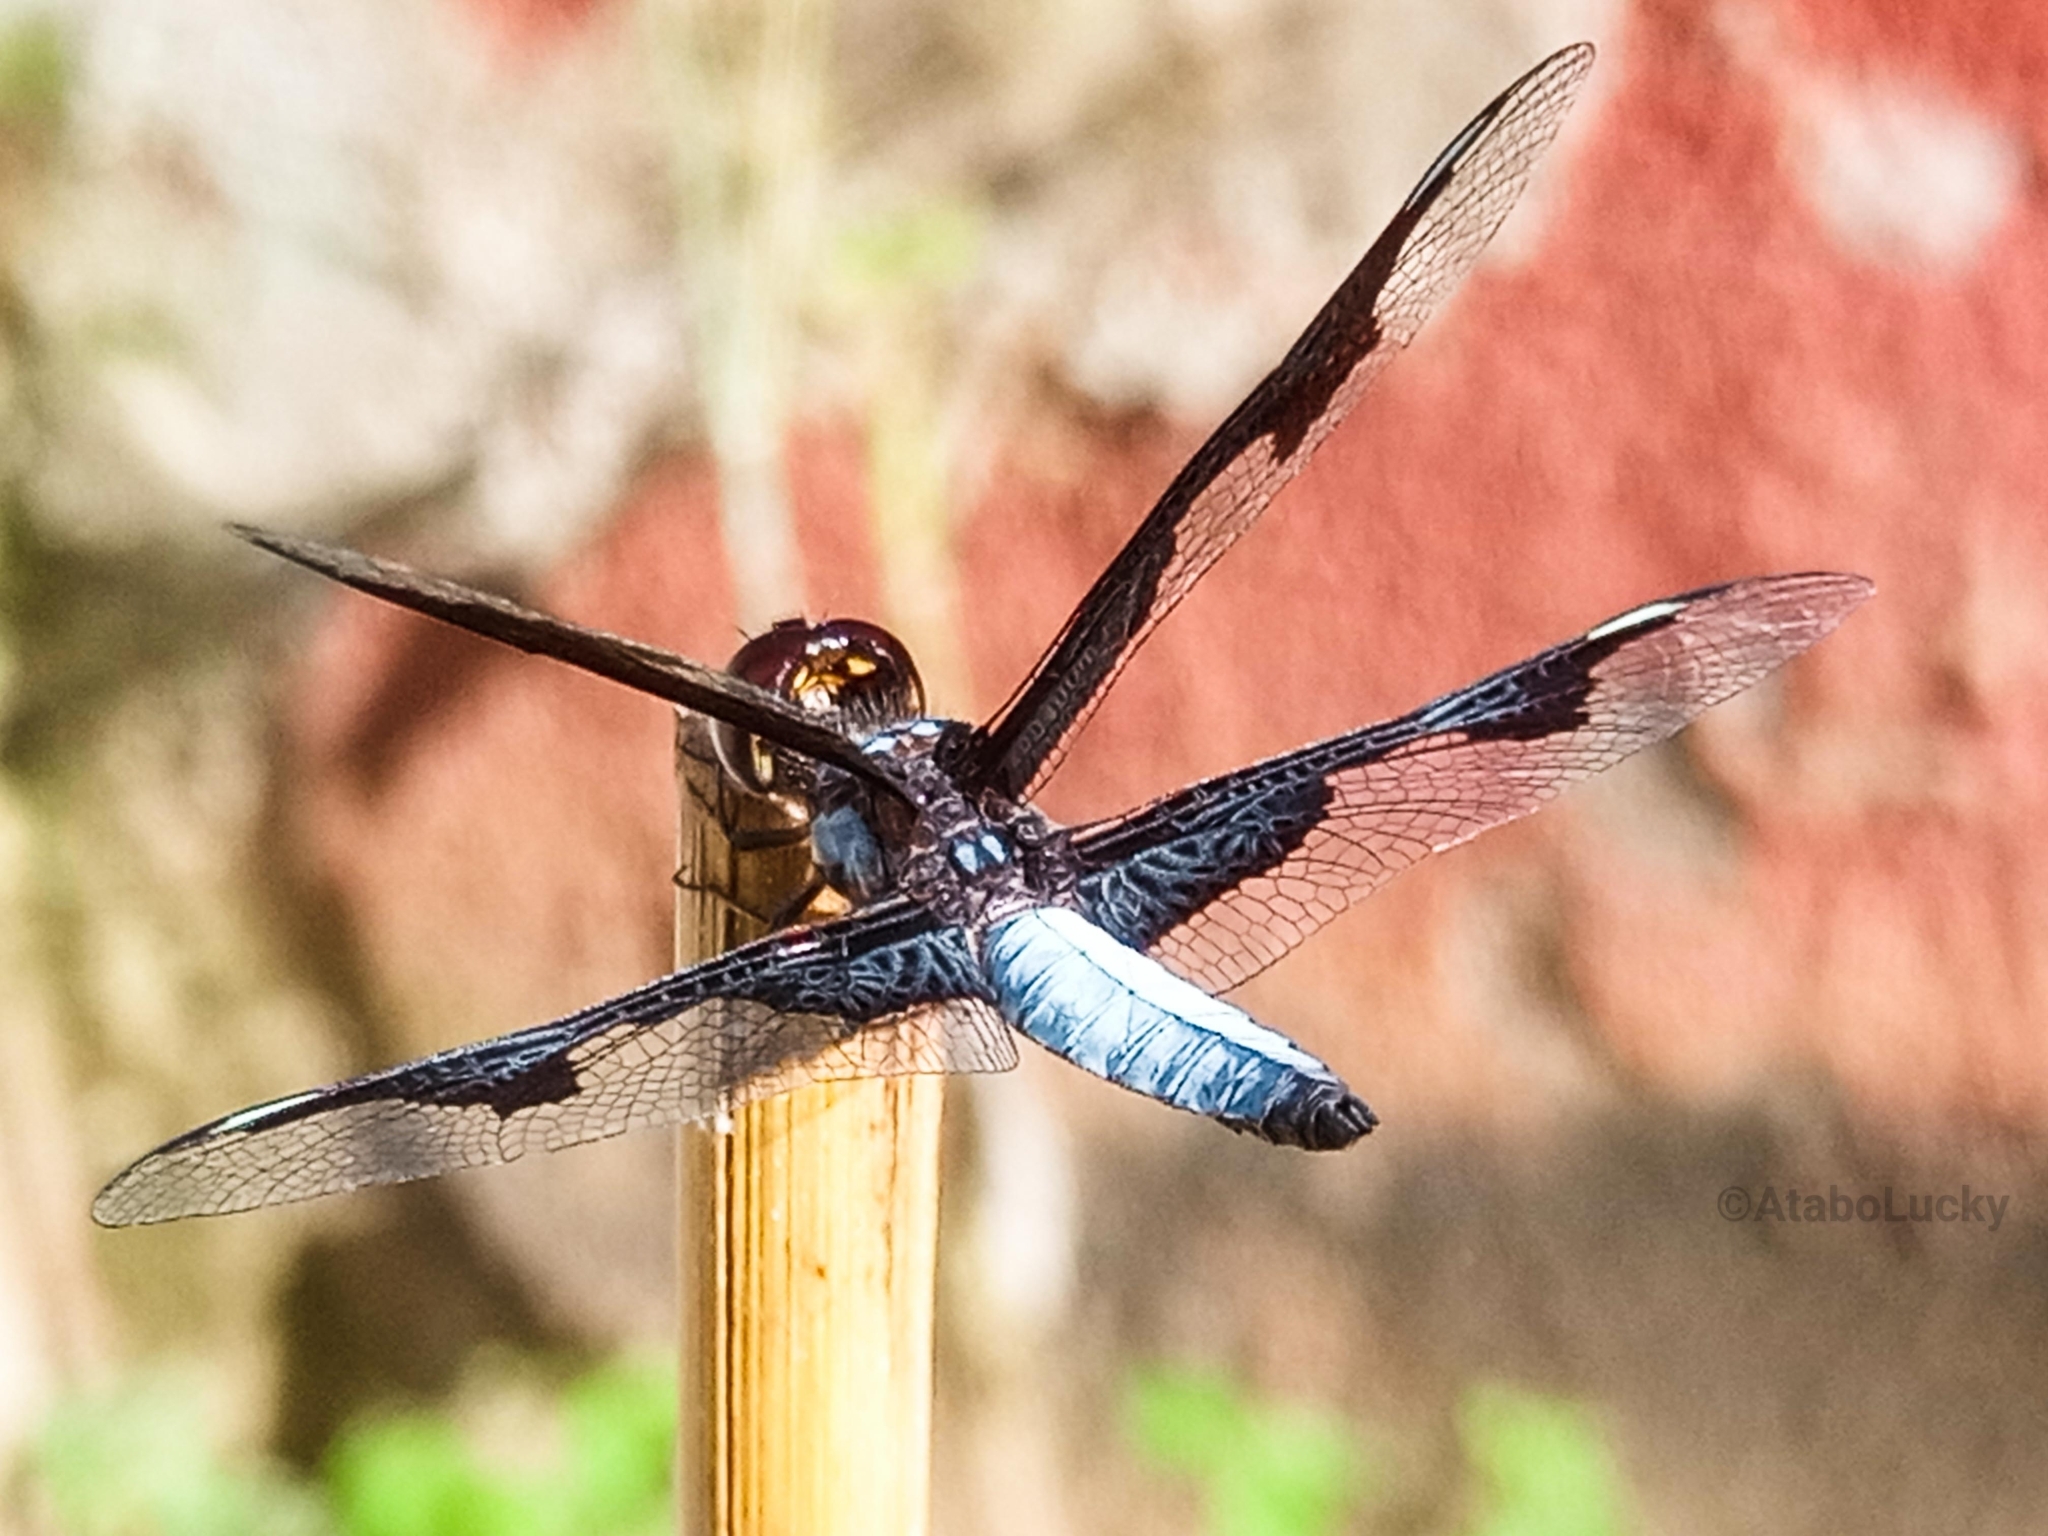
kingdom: Animalia
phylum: Arthropoda
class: Insecta
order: Odonata
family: Libellulidae
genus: Palpopleura
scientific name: Palpopleura portia
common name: Portia widow
